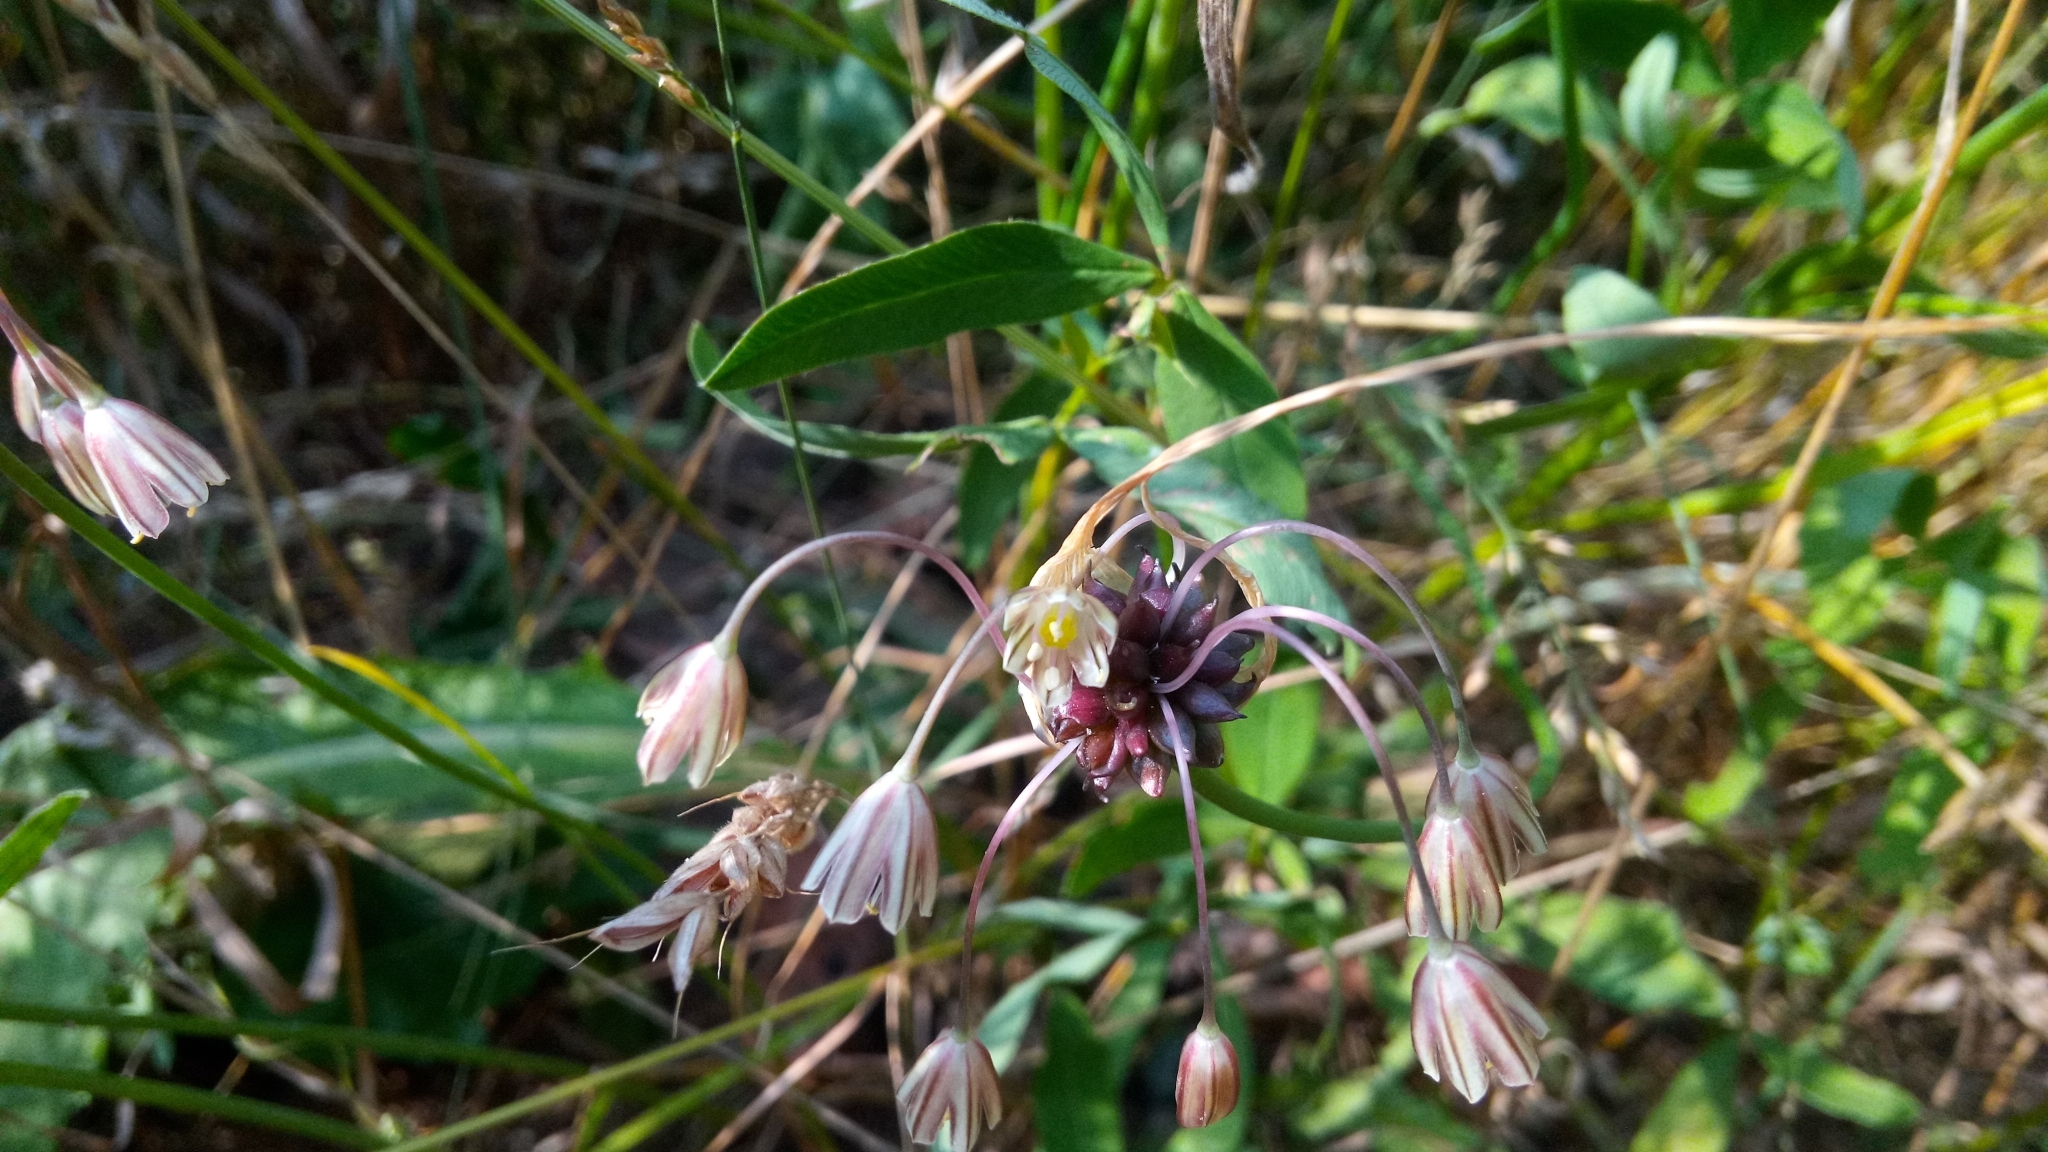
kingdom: Plantae
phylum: Tracheophyta
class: Liliopsida
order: Asparagales
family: Amaryllidaceae
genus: Allium
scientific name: Allium oleraceum
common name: Field garlic
